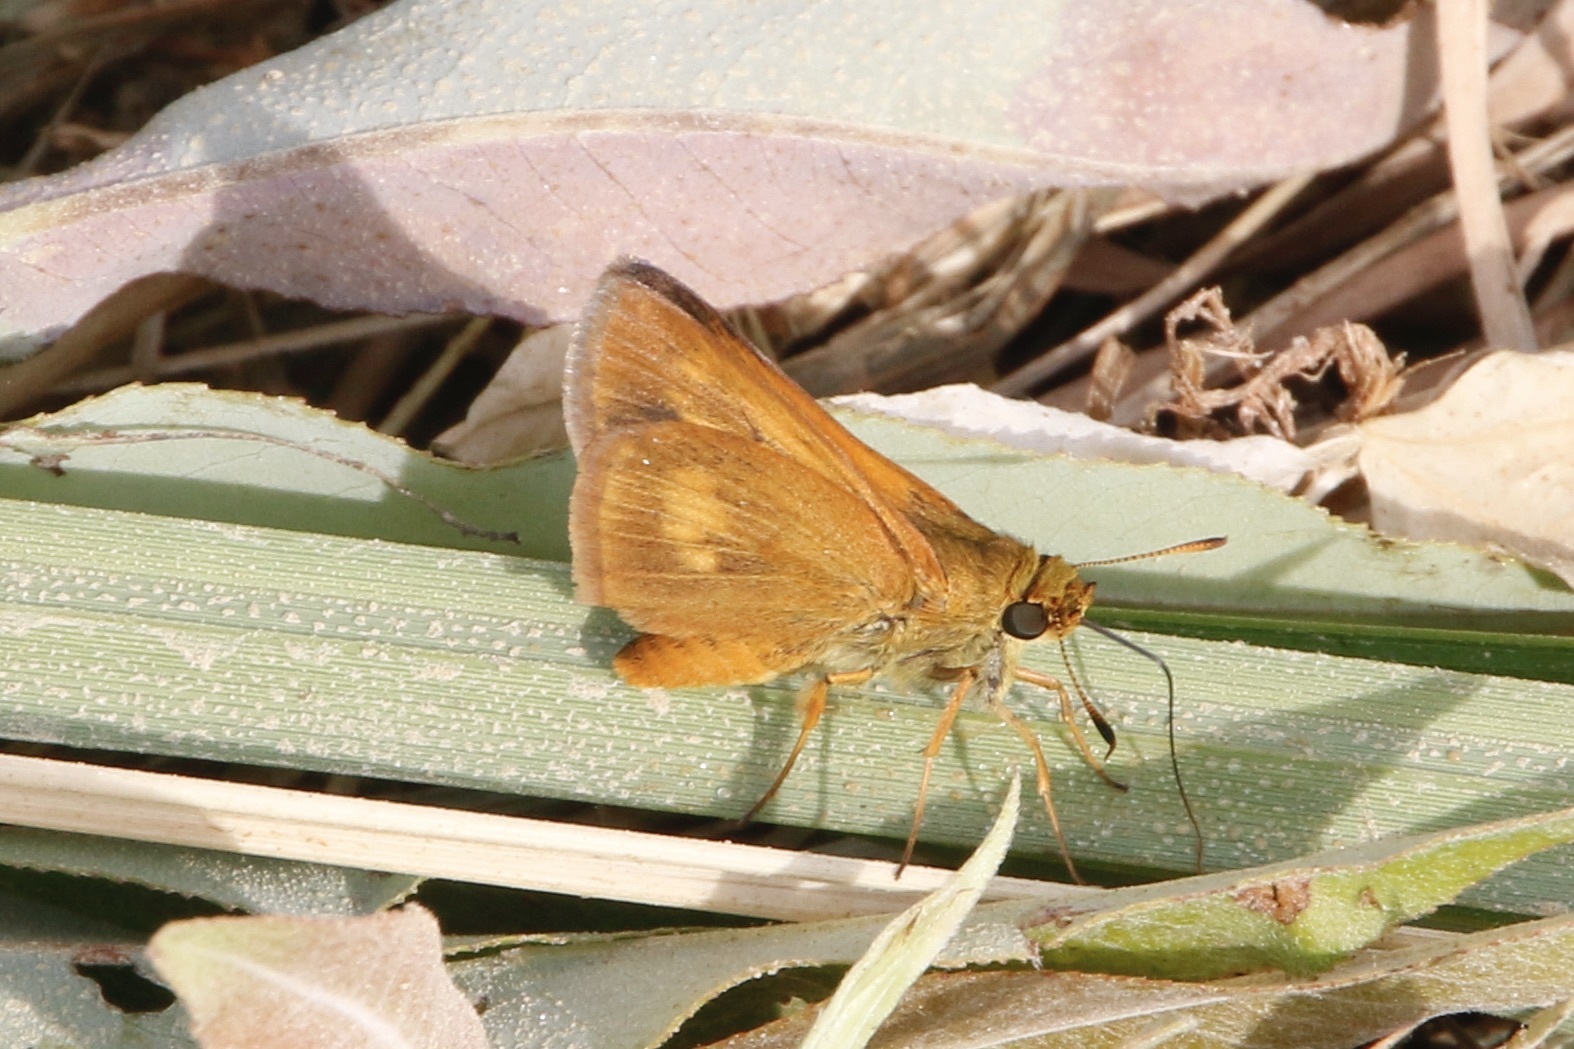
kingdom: Animalia
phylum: Arthropoda
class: Insecta
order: Lepidoptera
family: Hesperiidae
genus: Euphyes
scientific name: Euphyes conspicua
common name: Black dash
